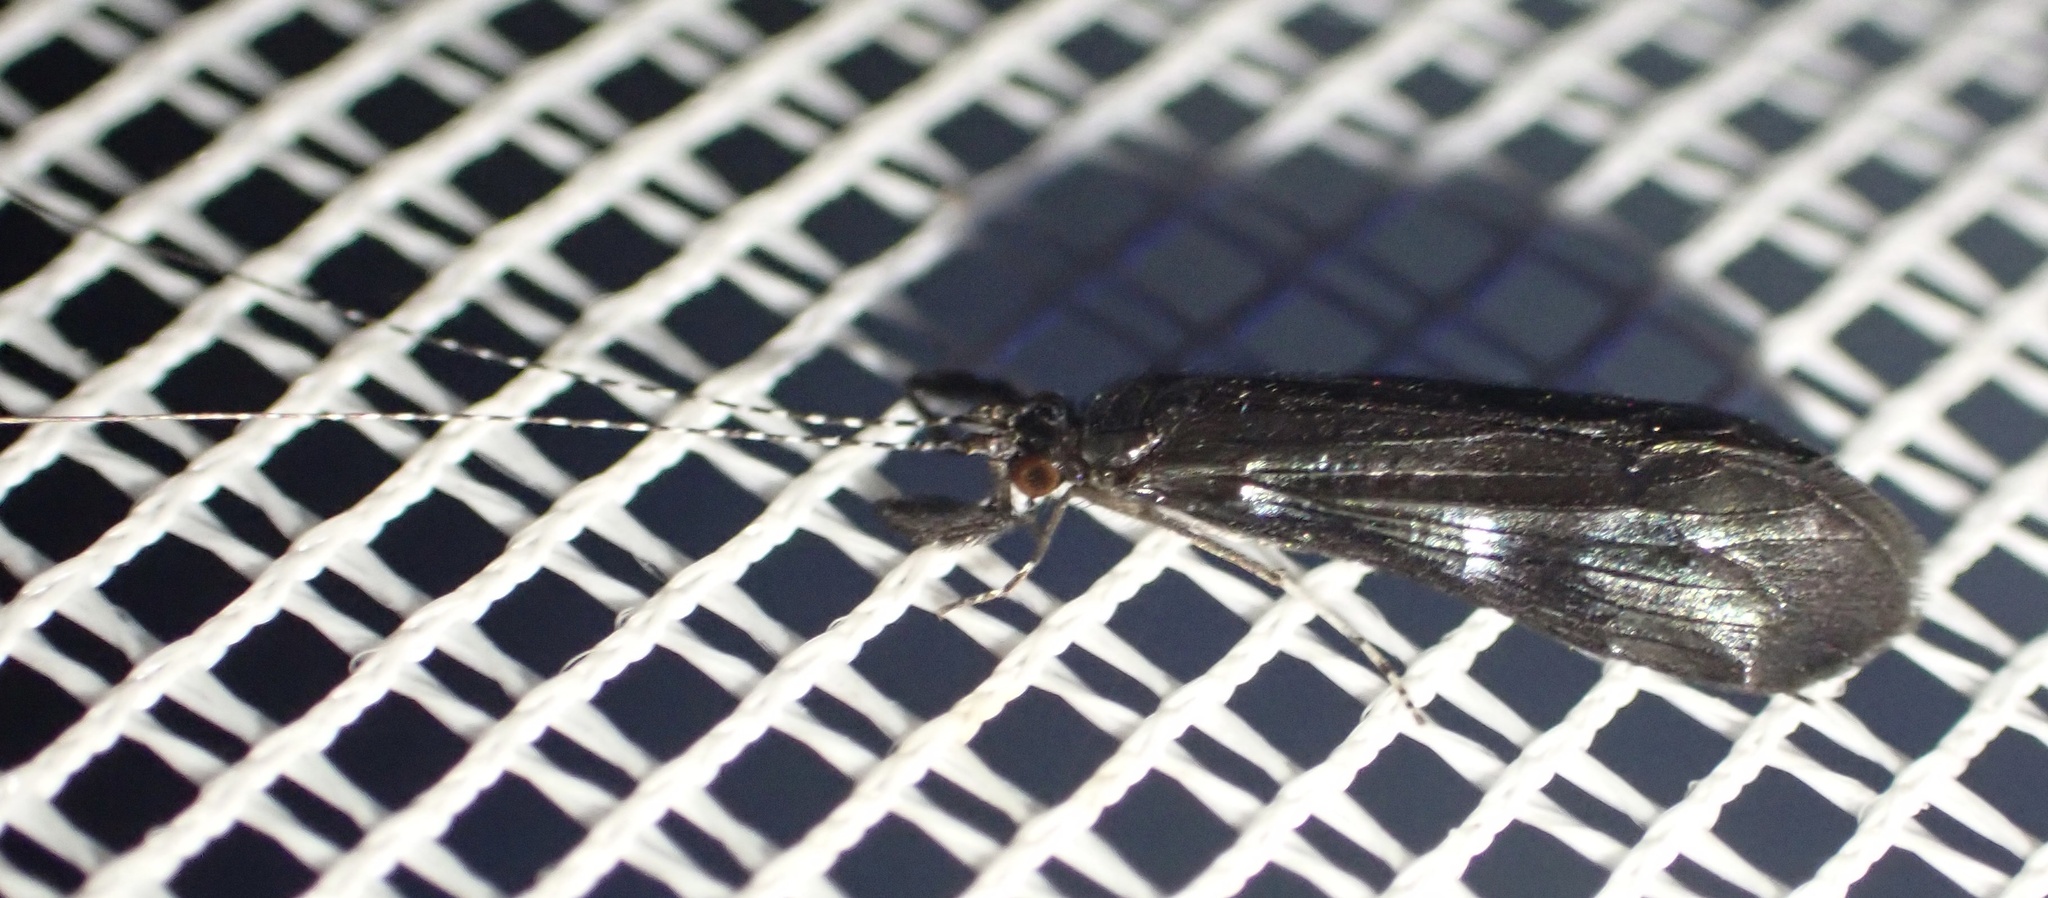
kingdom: Animalia
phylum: Arthropoda
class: Insecta
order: Trichoptera
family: Leptoceridae
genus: Mystacides
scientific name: Mystacides niger
